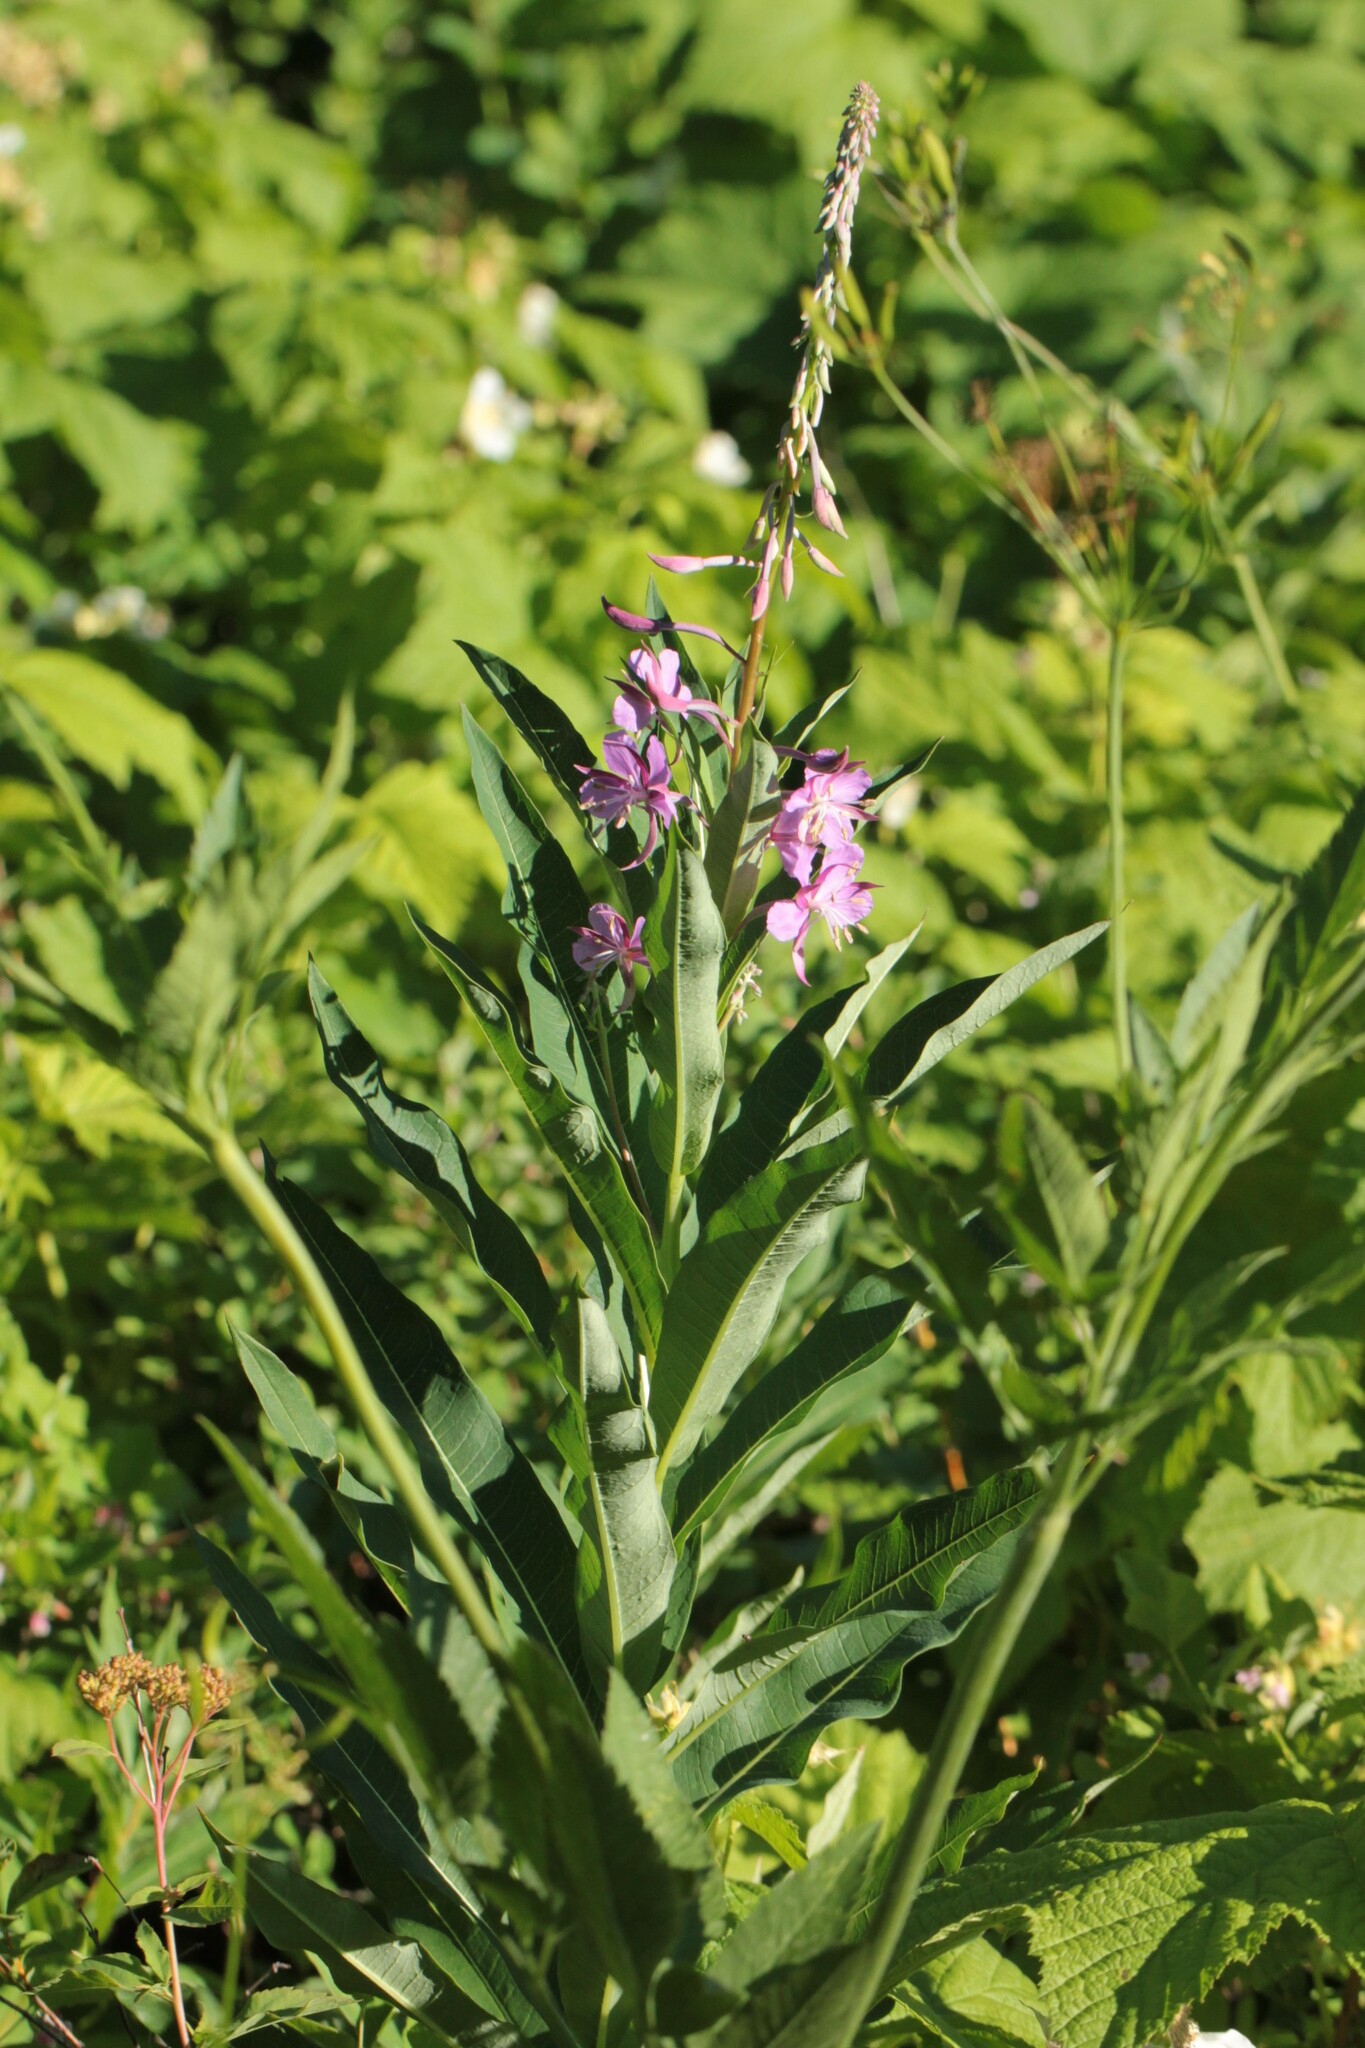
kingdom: Plantae
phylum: Tracheophyta
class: Magnoliopsida
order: Myrtales
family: Onagraceae
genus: Chamaenerion
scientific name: Chamaenerion angustifolium
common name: Fireweed
